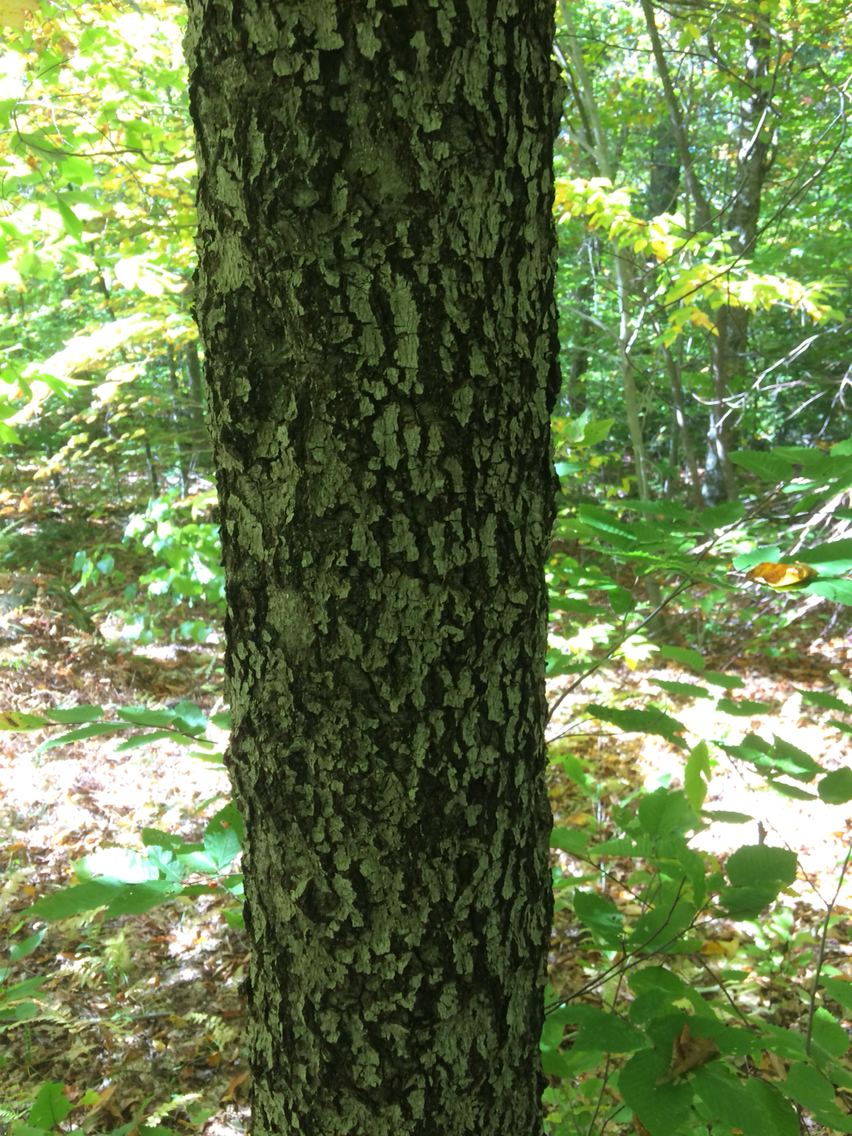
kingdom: Animalia
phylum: Arthropoda
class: Insecta
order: Hemiptera
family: Eriococcidae
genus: Cryptococcus
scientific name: Cryptococcus fagisuga
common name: Beech scale
